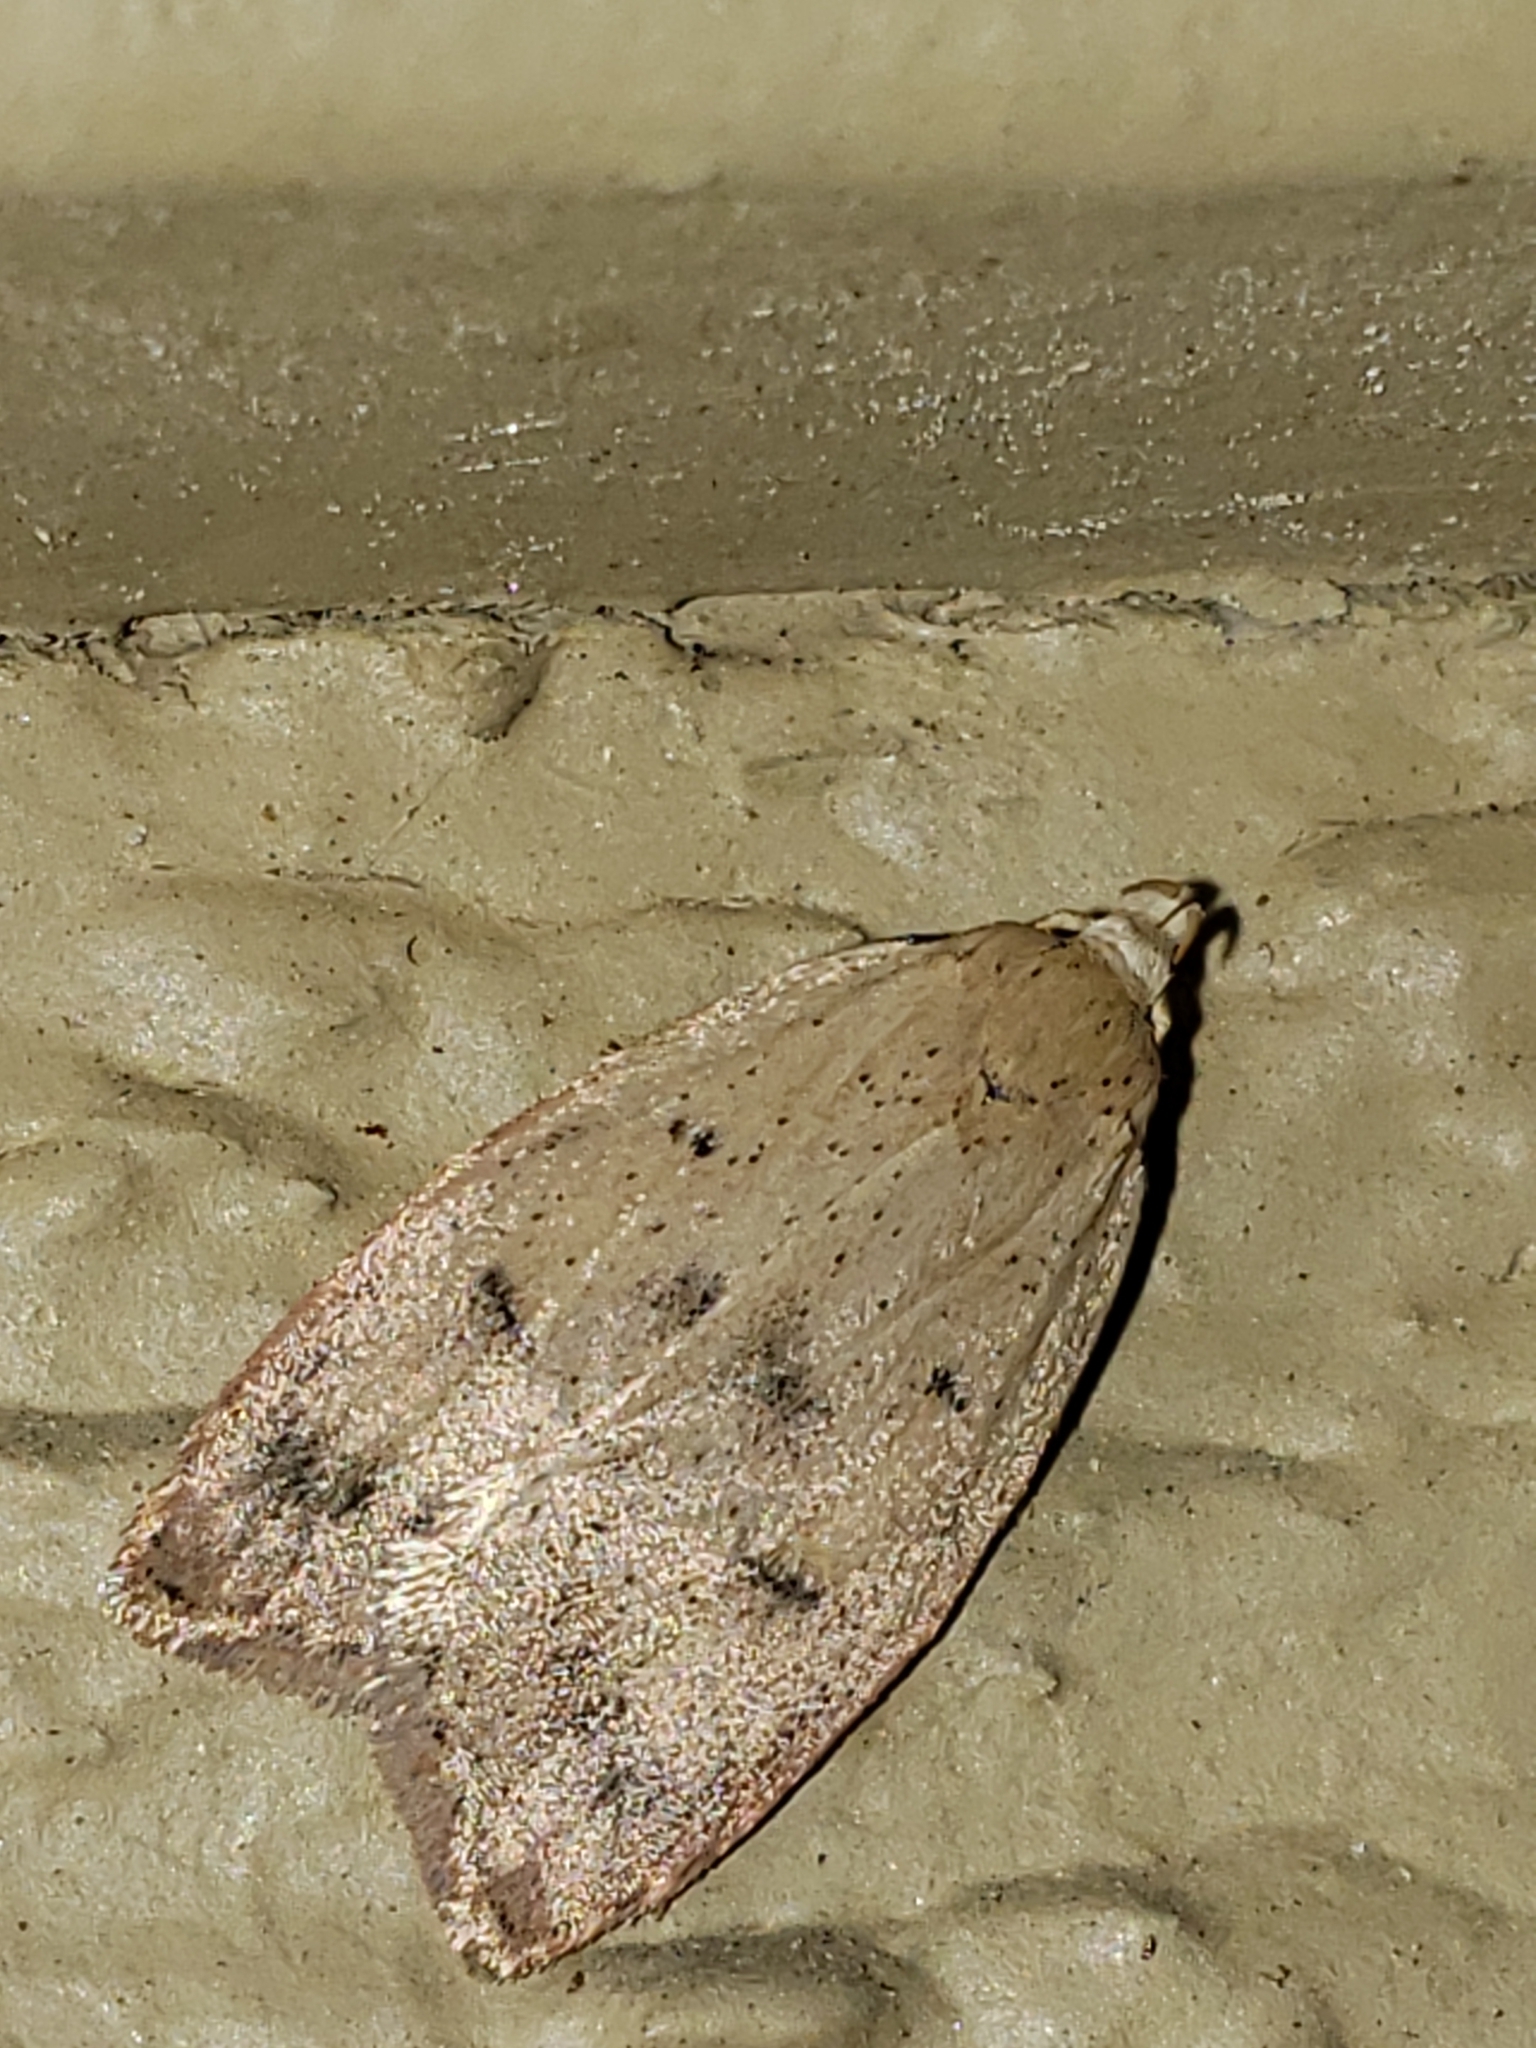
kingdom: Animalia
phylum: Arthropoda
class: Insecta
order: Lepidoptera
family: Peleopodidae
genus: Machimia
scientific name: Machimia tentoriferella
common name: Gold-striped leaftier moth
